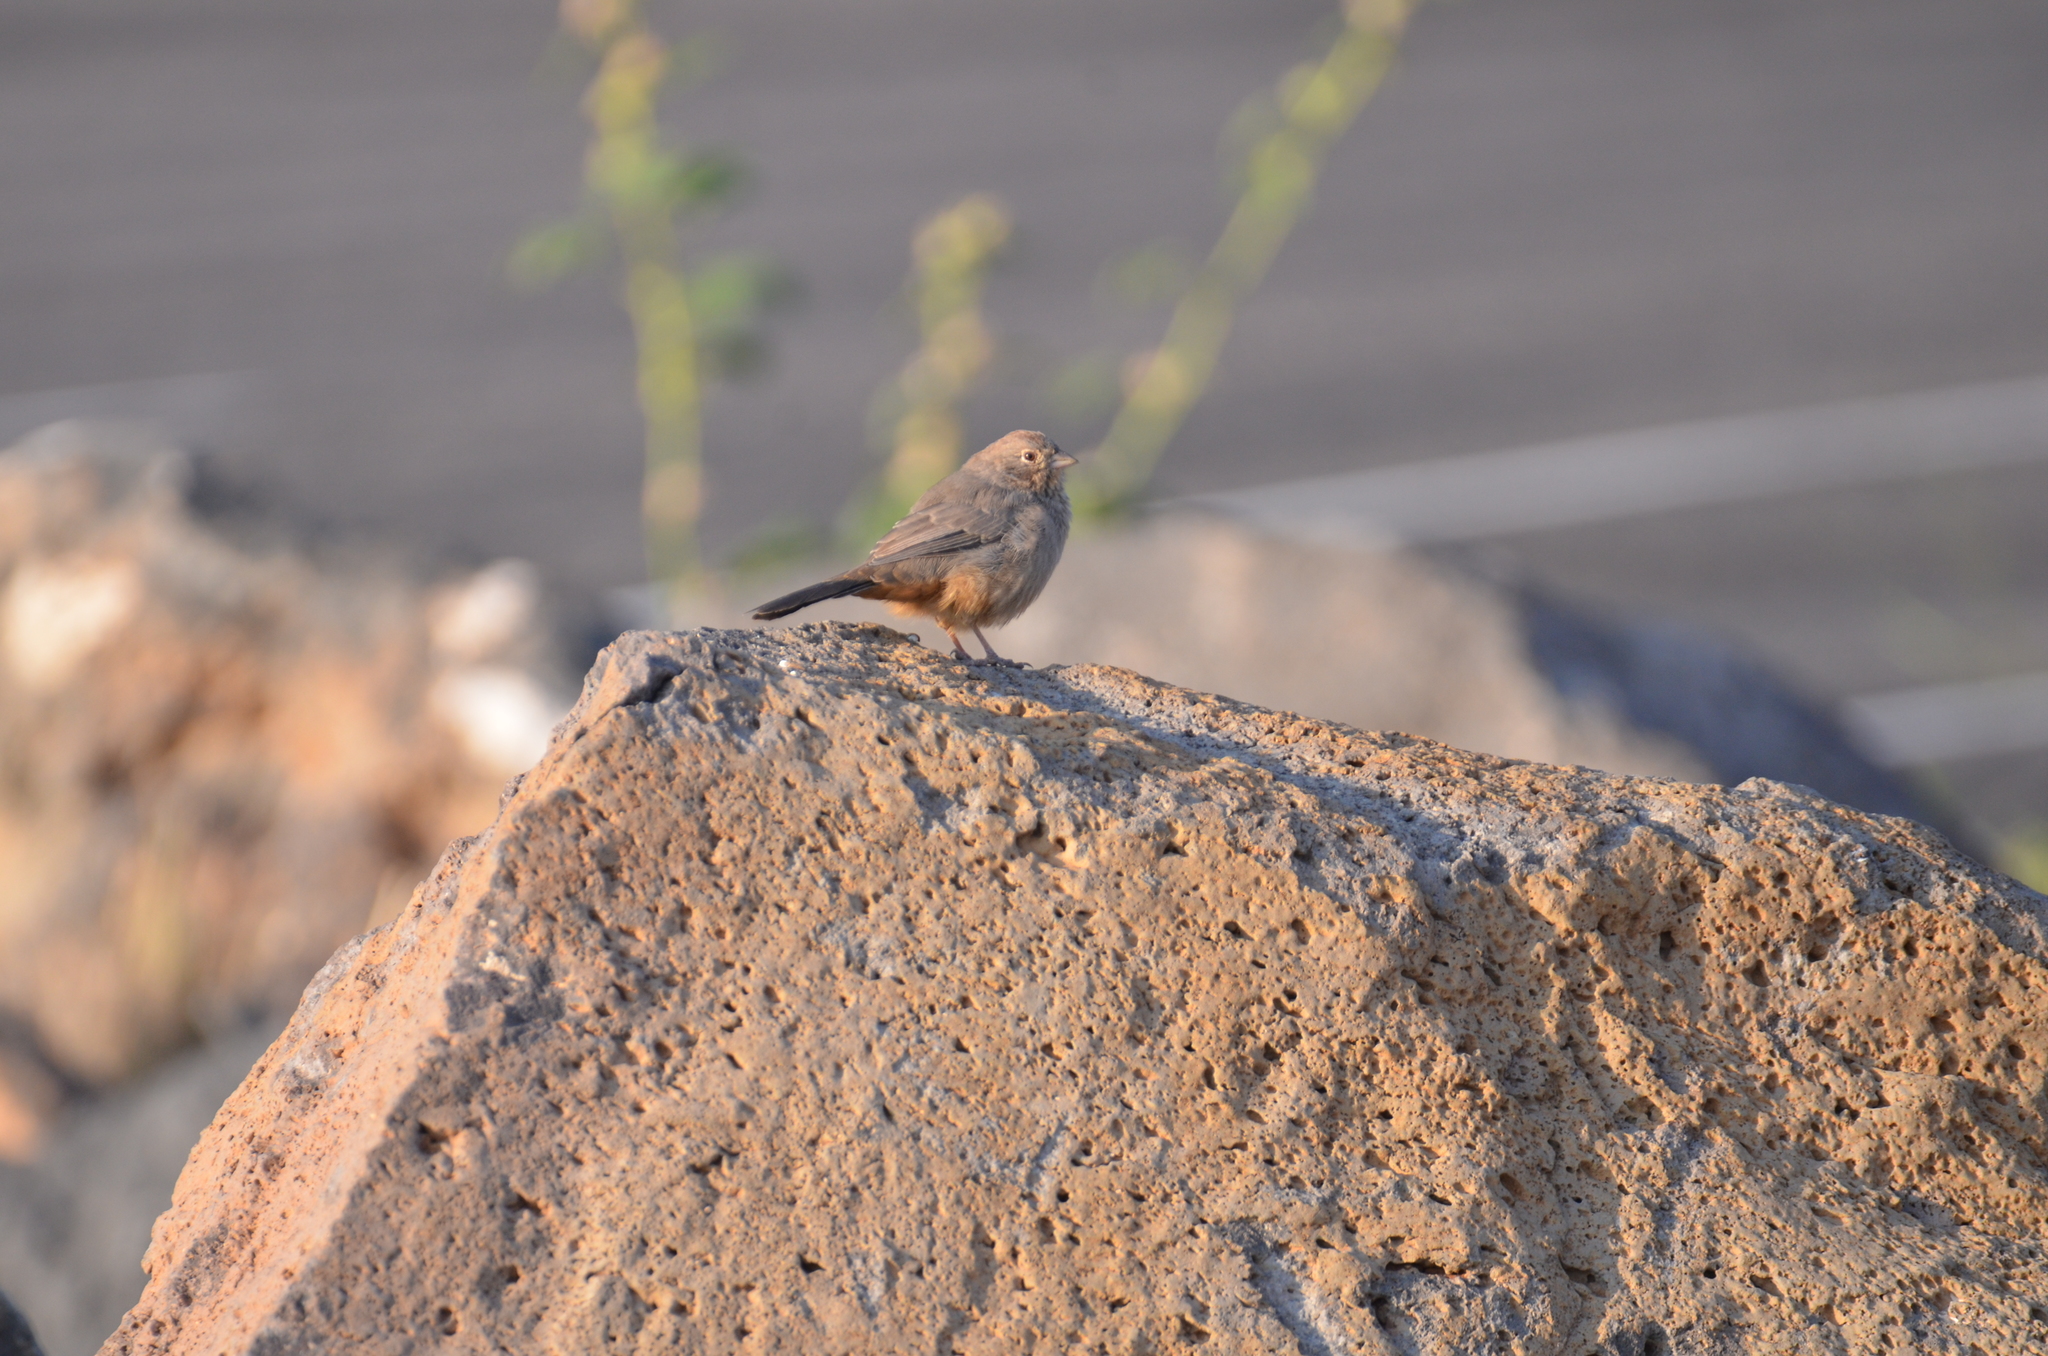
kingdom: Animalia
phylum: Chordata
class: Aves
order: Passeriformes
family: Passerellidae
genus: Melozone
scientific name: Melozone fusca
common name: Canyon towhee
